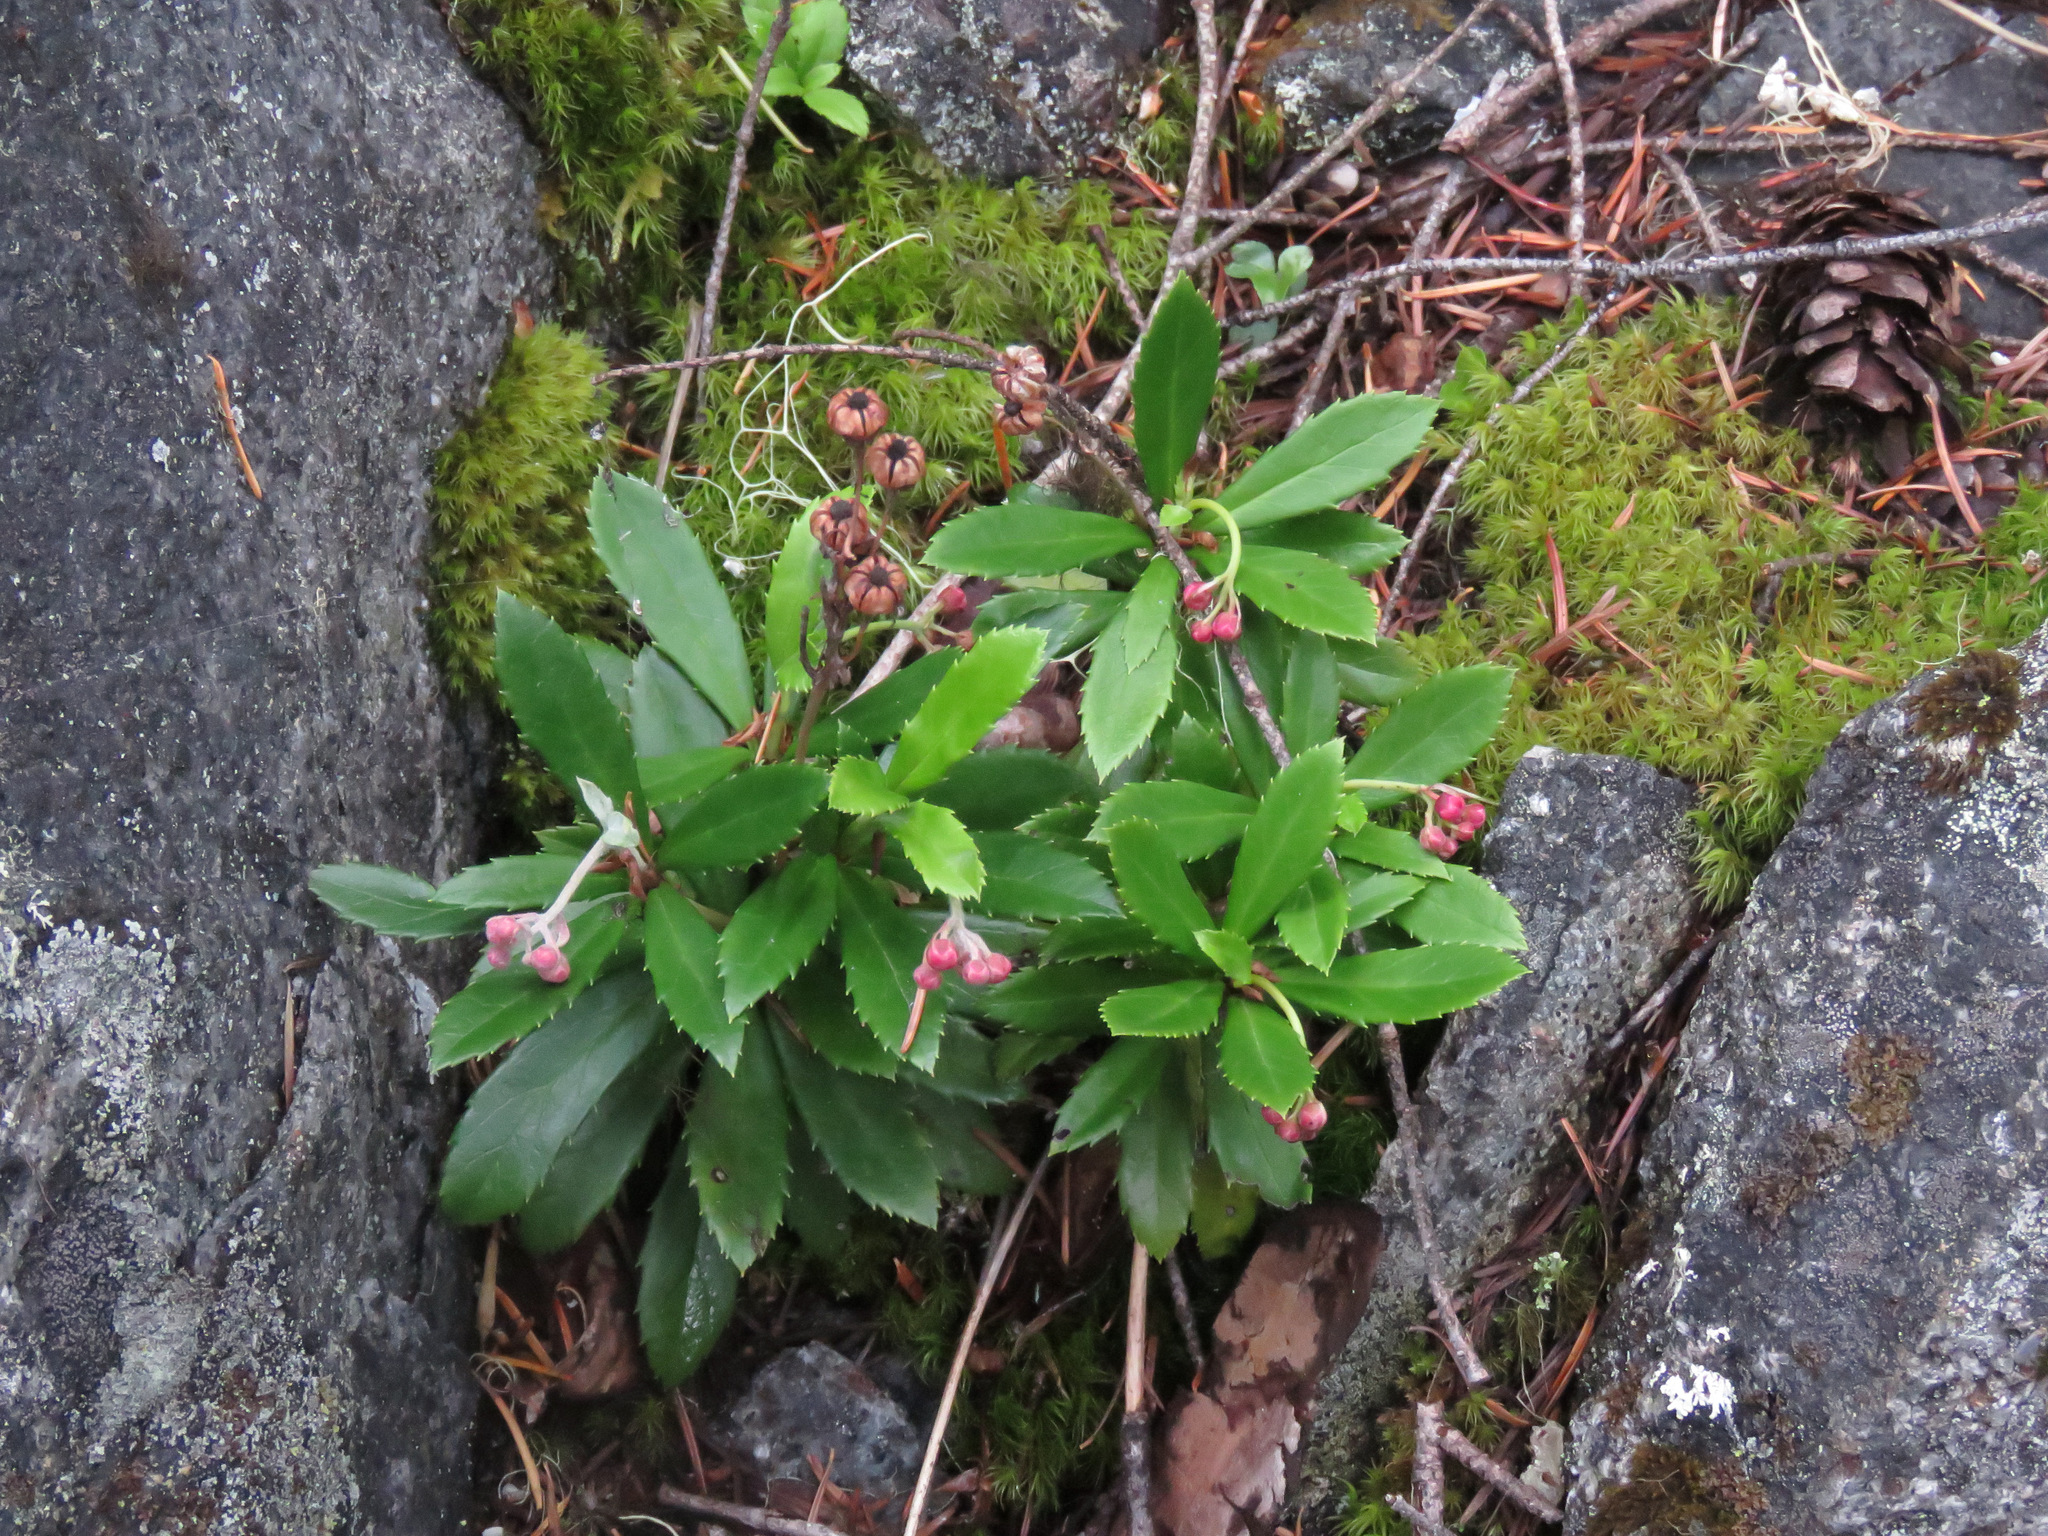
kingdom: Plantae
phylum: Tracheophyta
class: Magnoliopsida
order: Ericales
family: Ericaceae
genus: Chimaphila
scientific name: Chimaphila umbellata
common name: Pipsissewa
